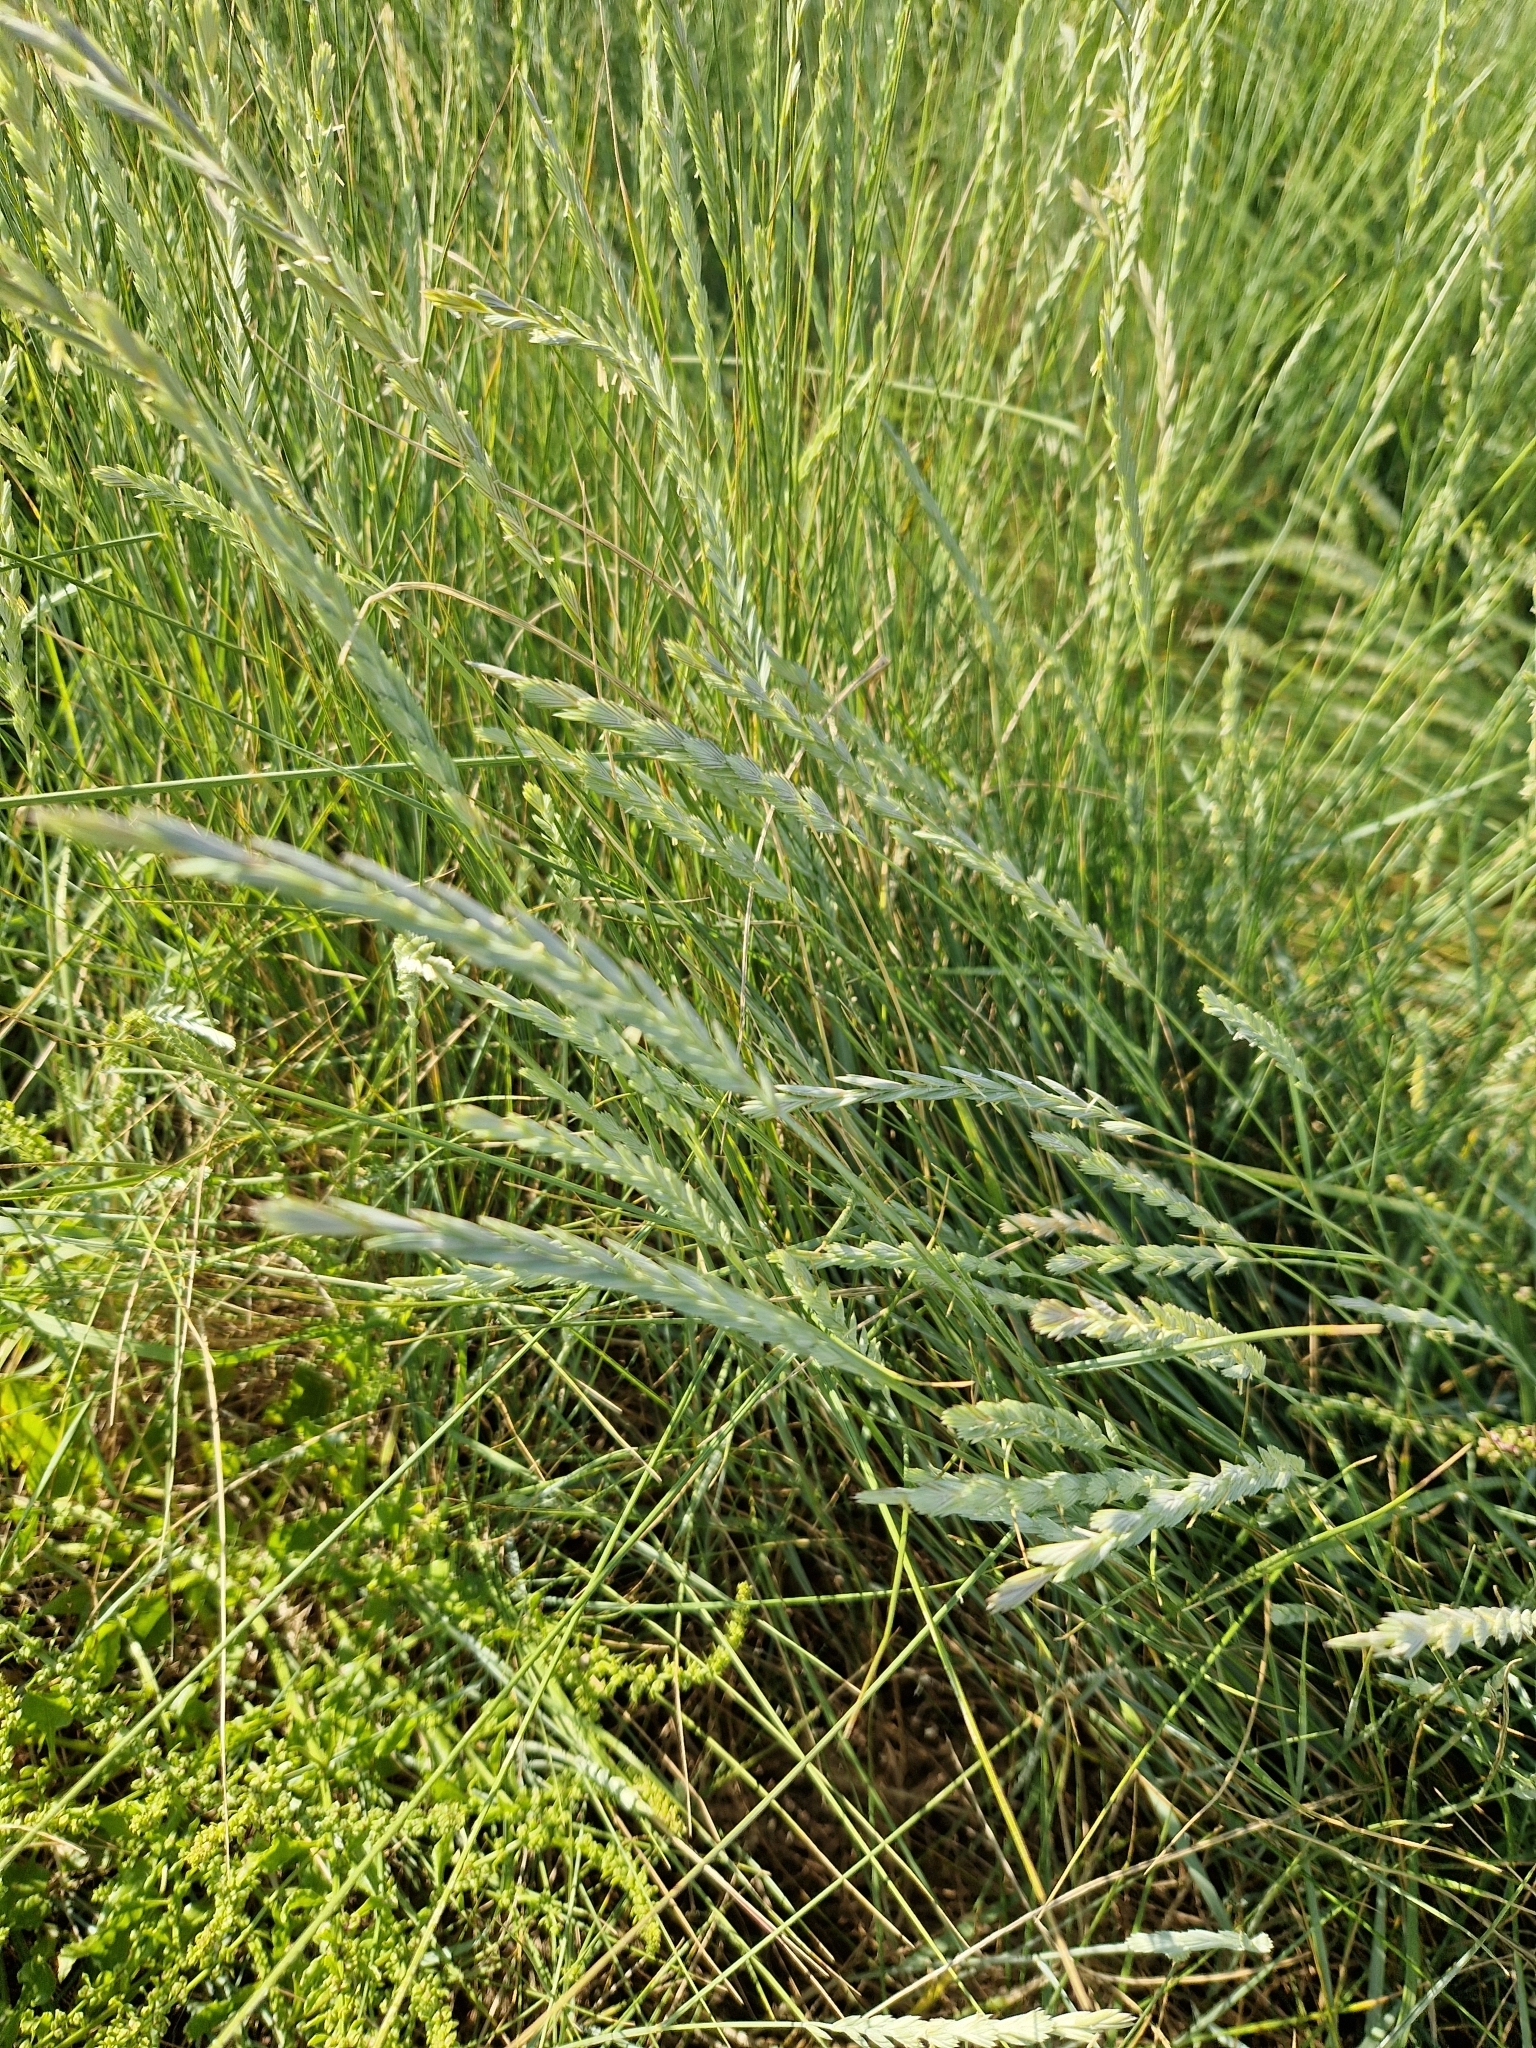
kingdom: Plantae
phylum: Tracheophyta
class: Liliopsida
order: Poales
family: Poaceae
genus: Elymus
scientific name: Elymus athericus
